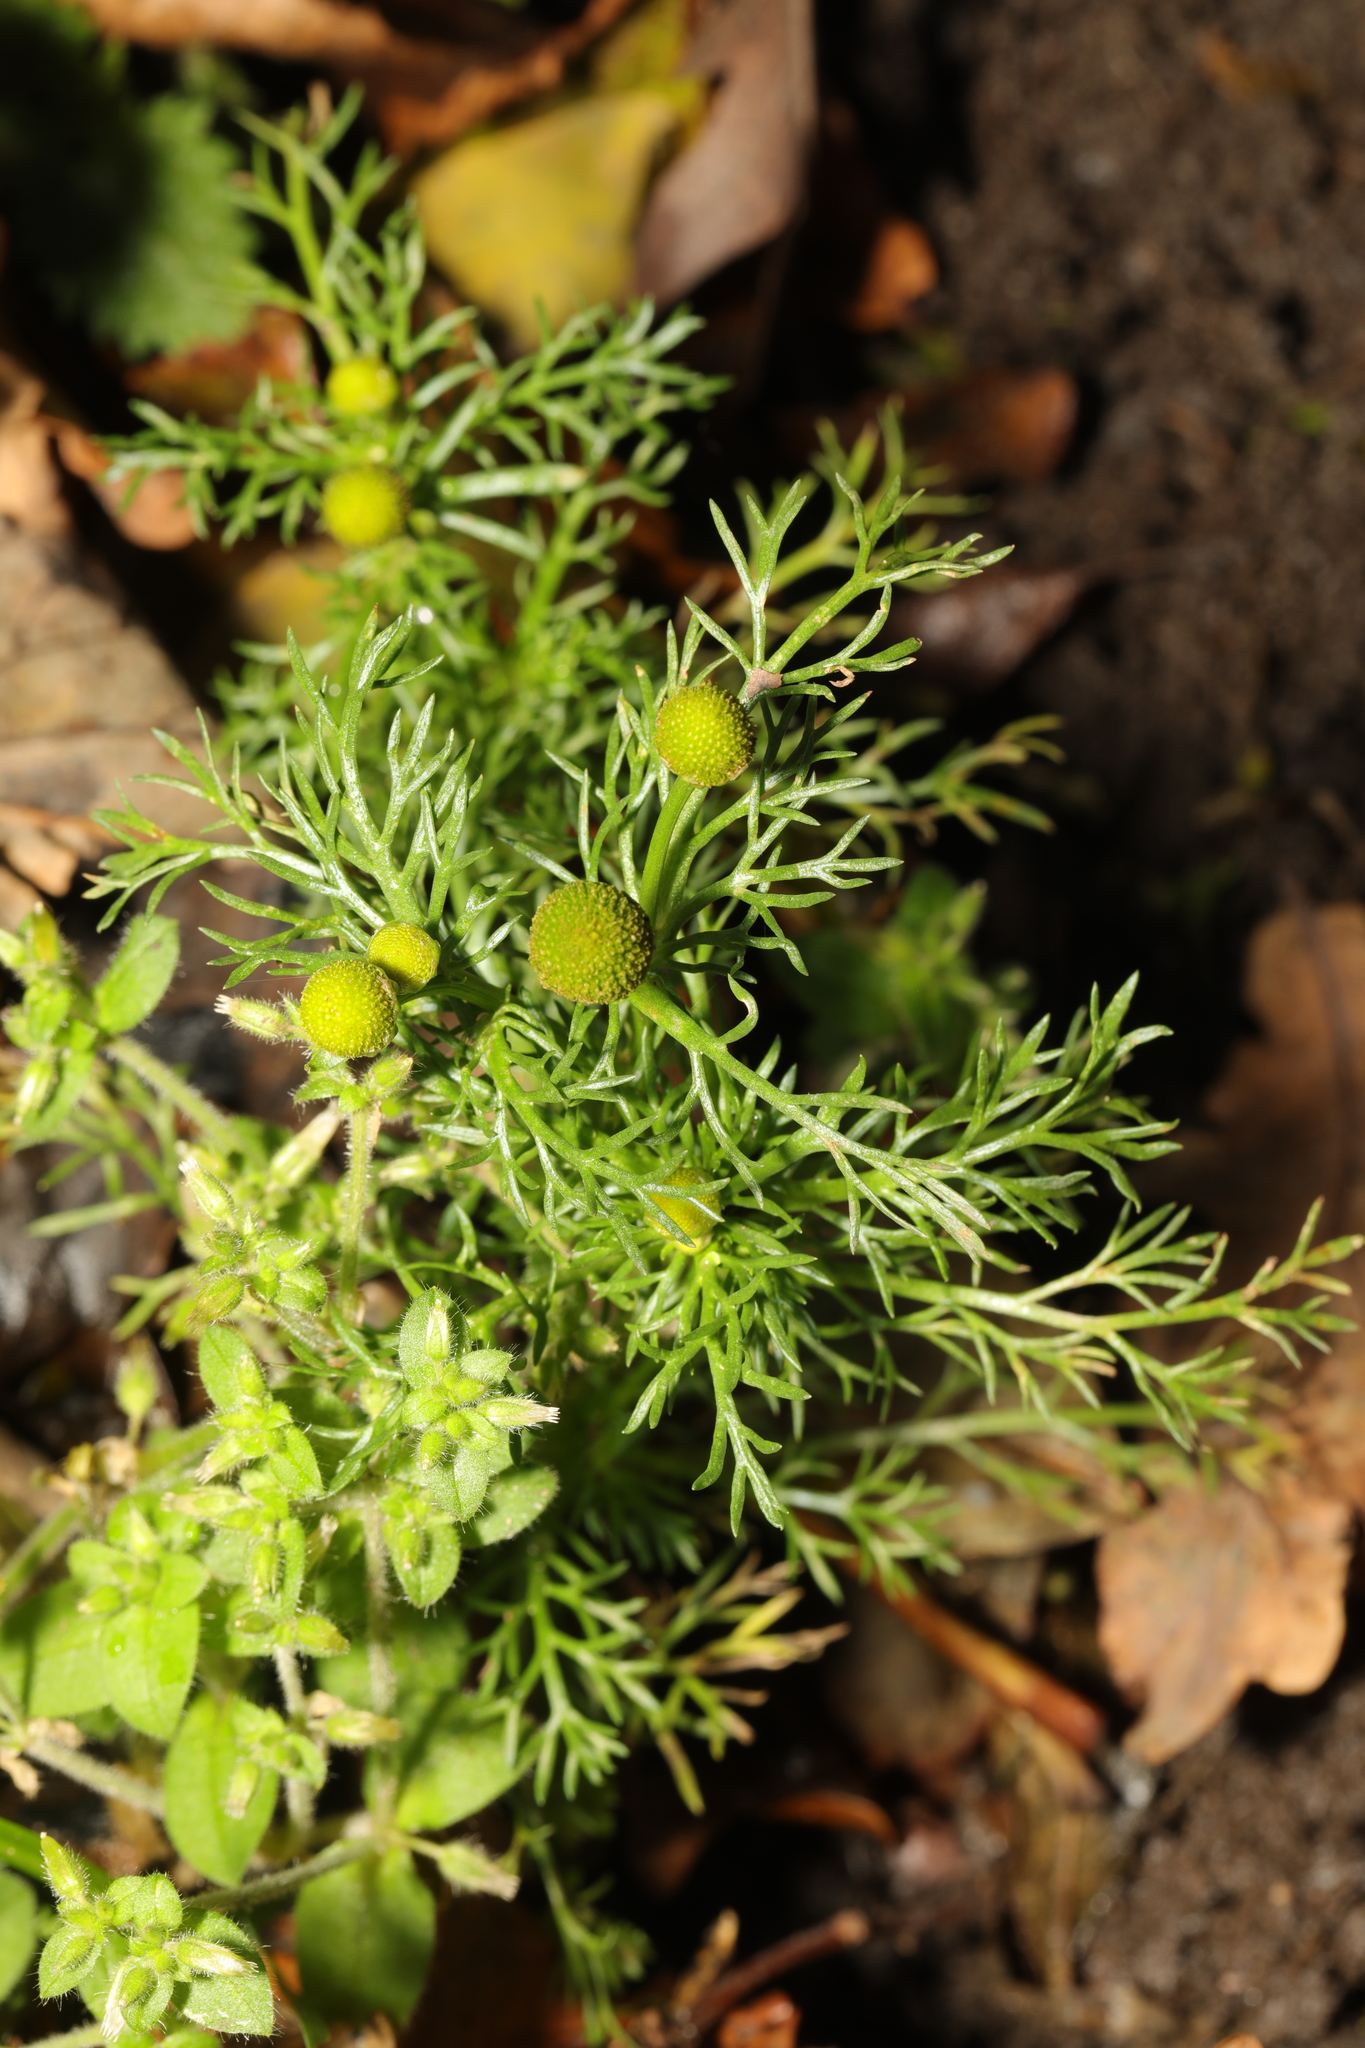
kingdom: Plantae
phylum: Tracheophyta
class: Magnoliopsida
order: Asterales
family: Asteraceae
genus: Matricaria
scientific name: Matricaria discoidea
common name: Disc mayweed
